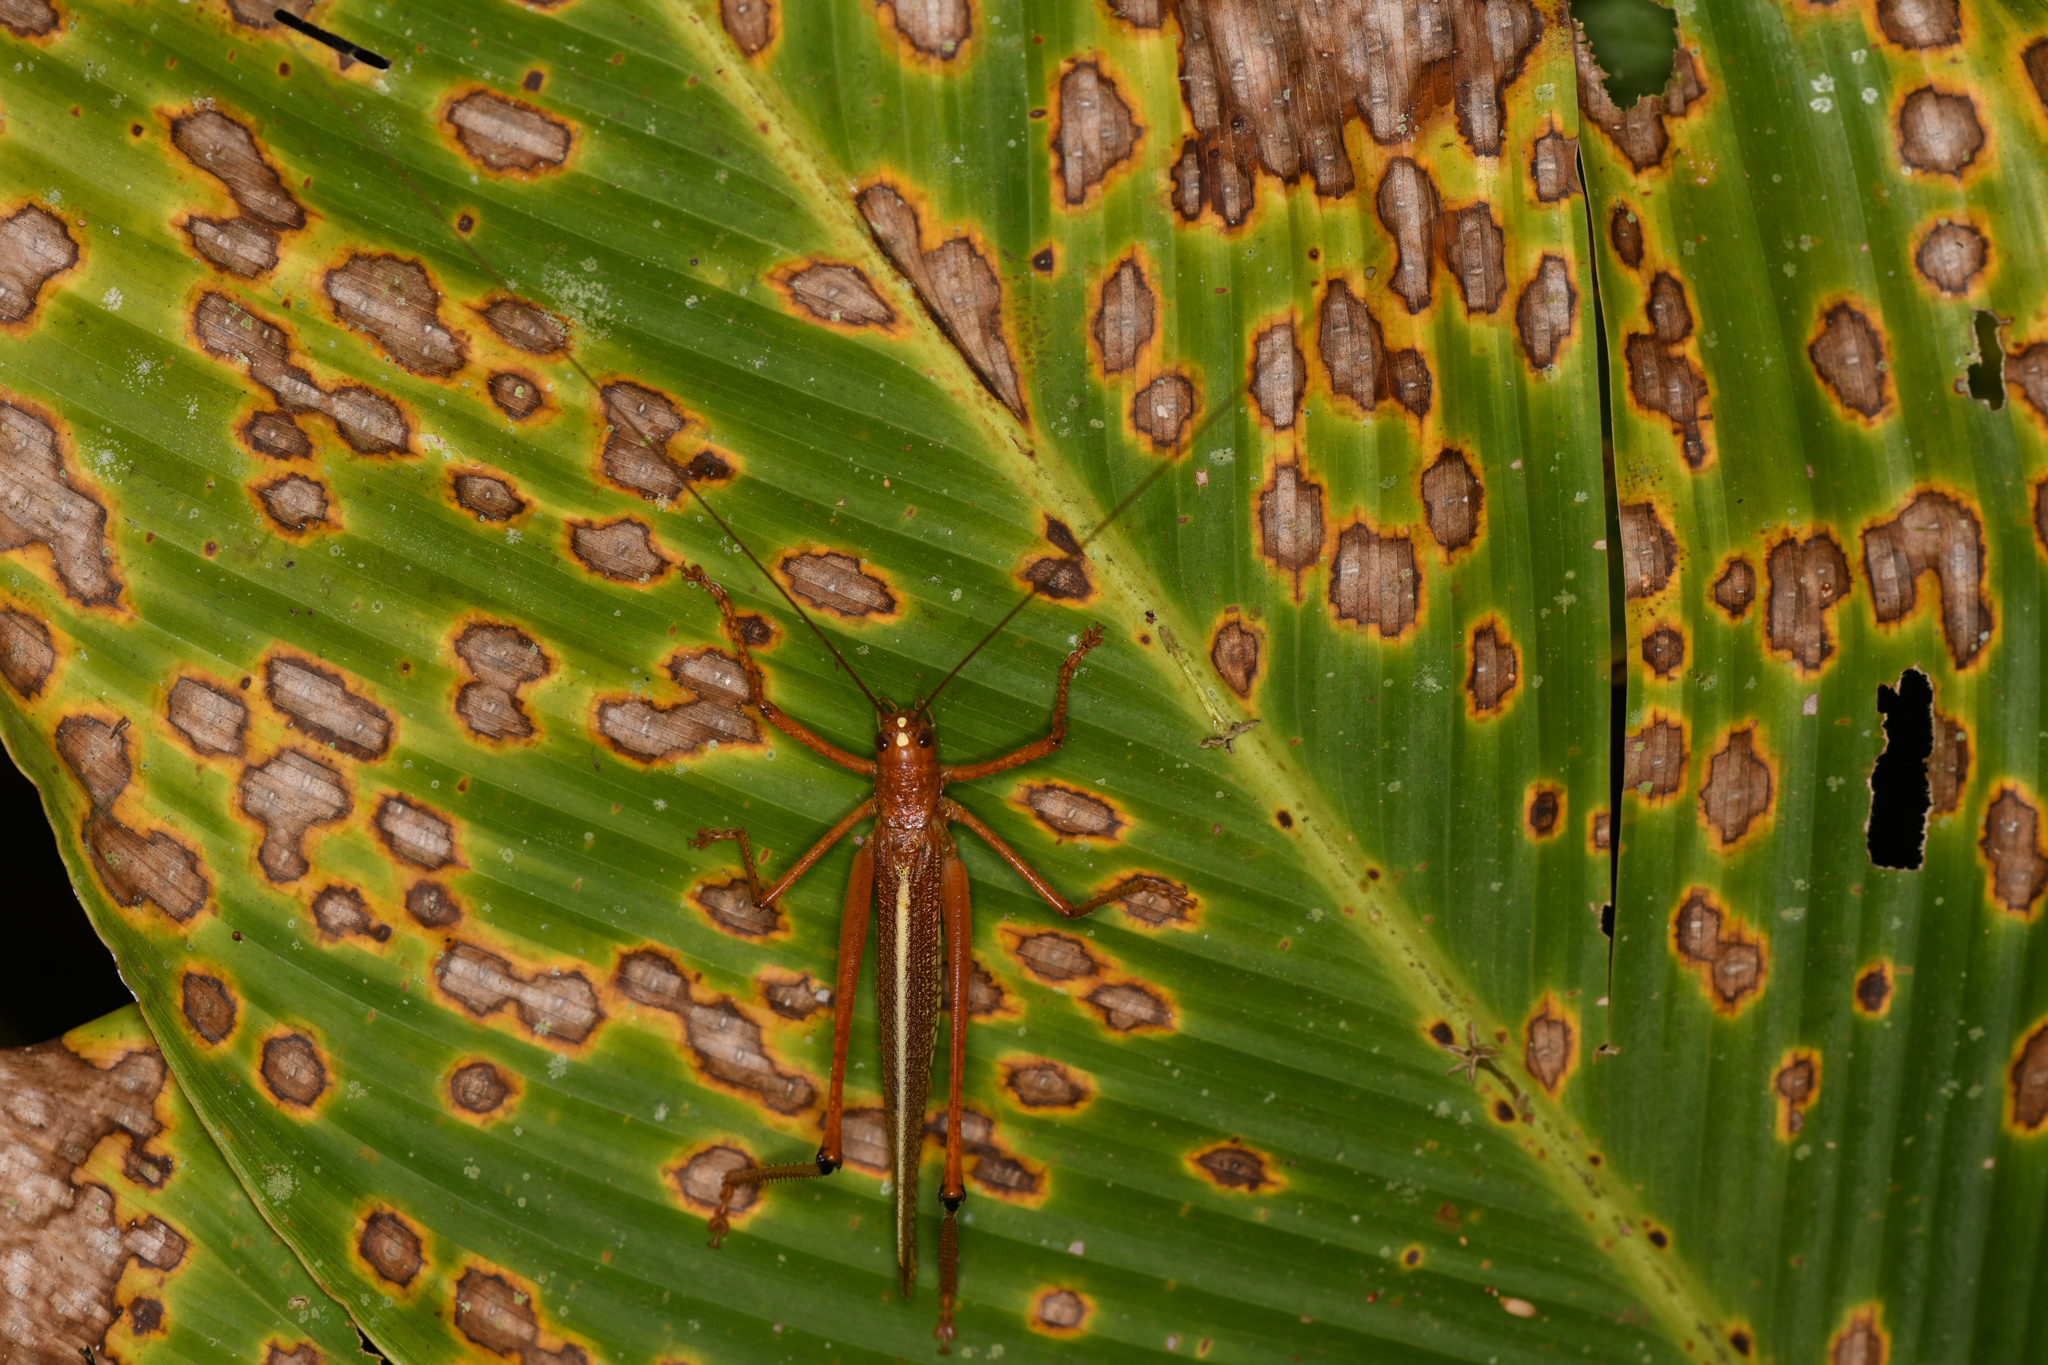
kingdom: Animalia
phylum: Arthropoda
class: Insecta
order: Orthoptera
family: Tettigoniidae
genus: Ischnomela
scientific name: Ischnomela gracilis
